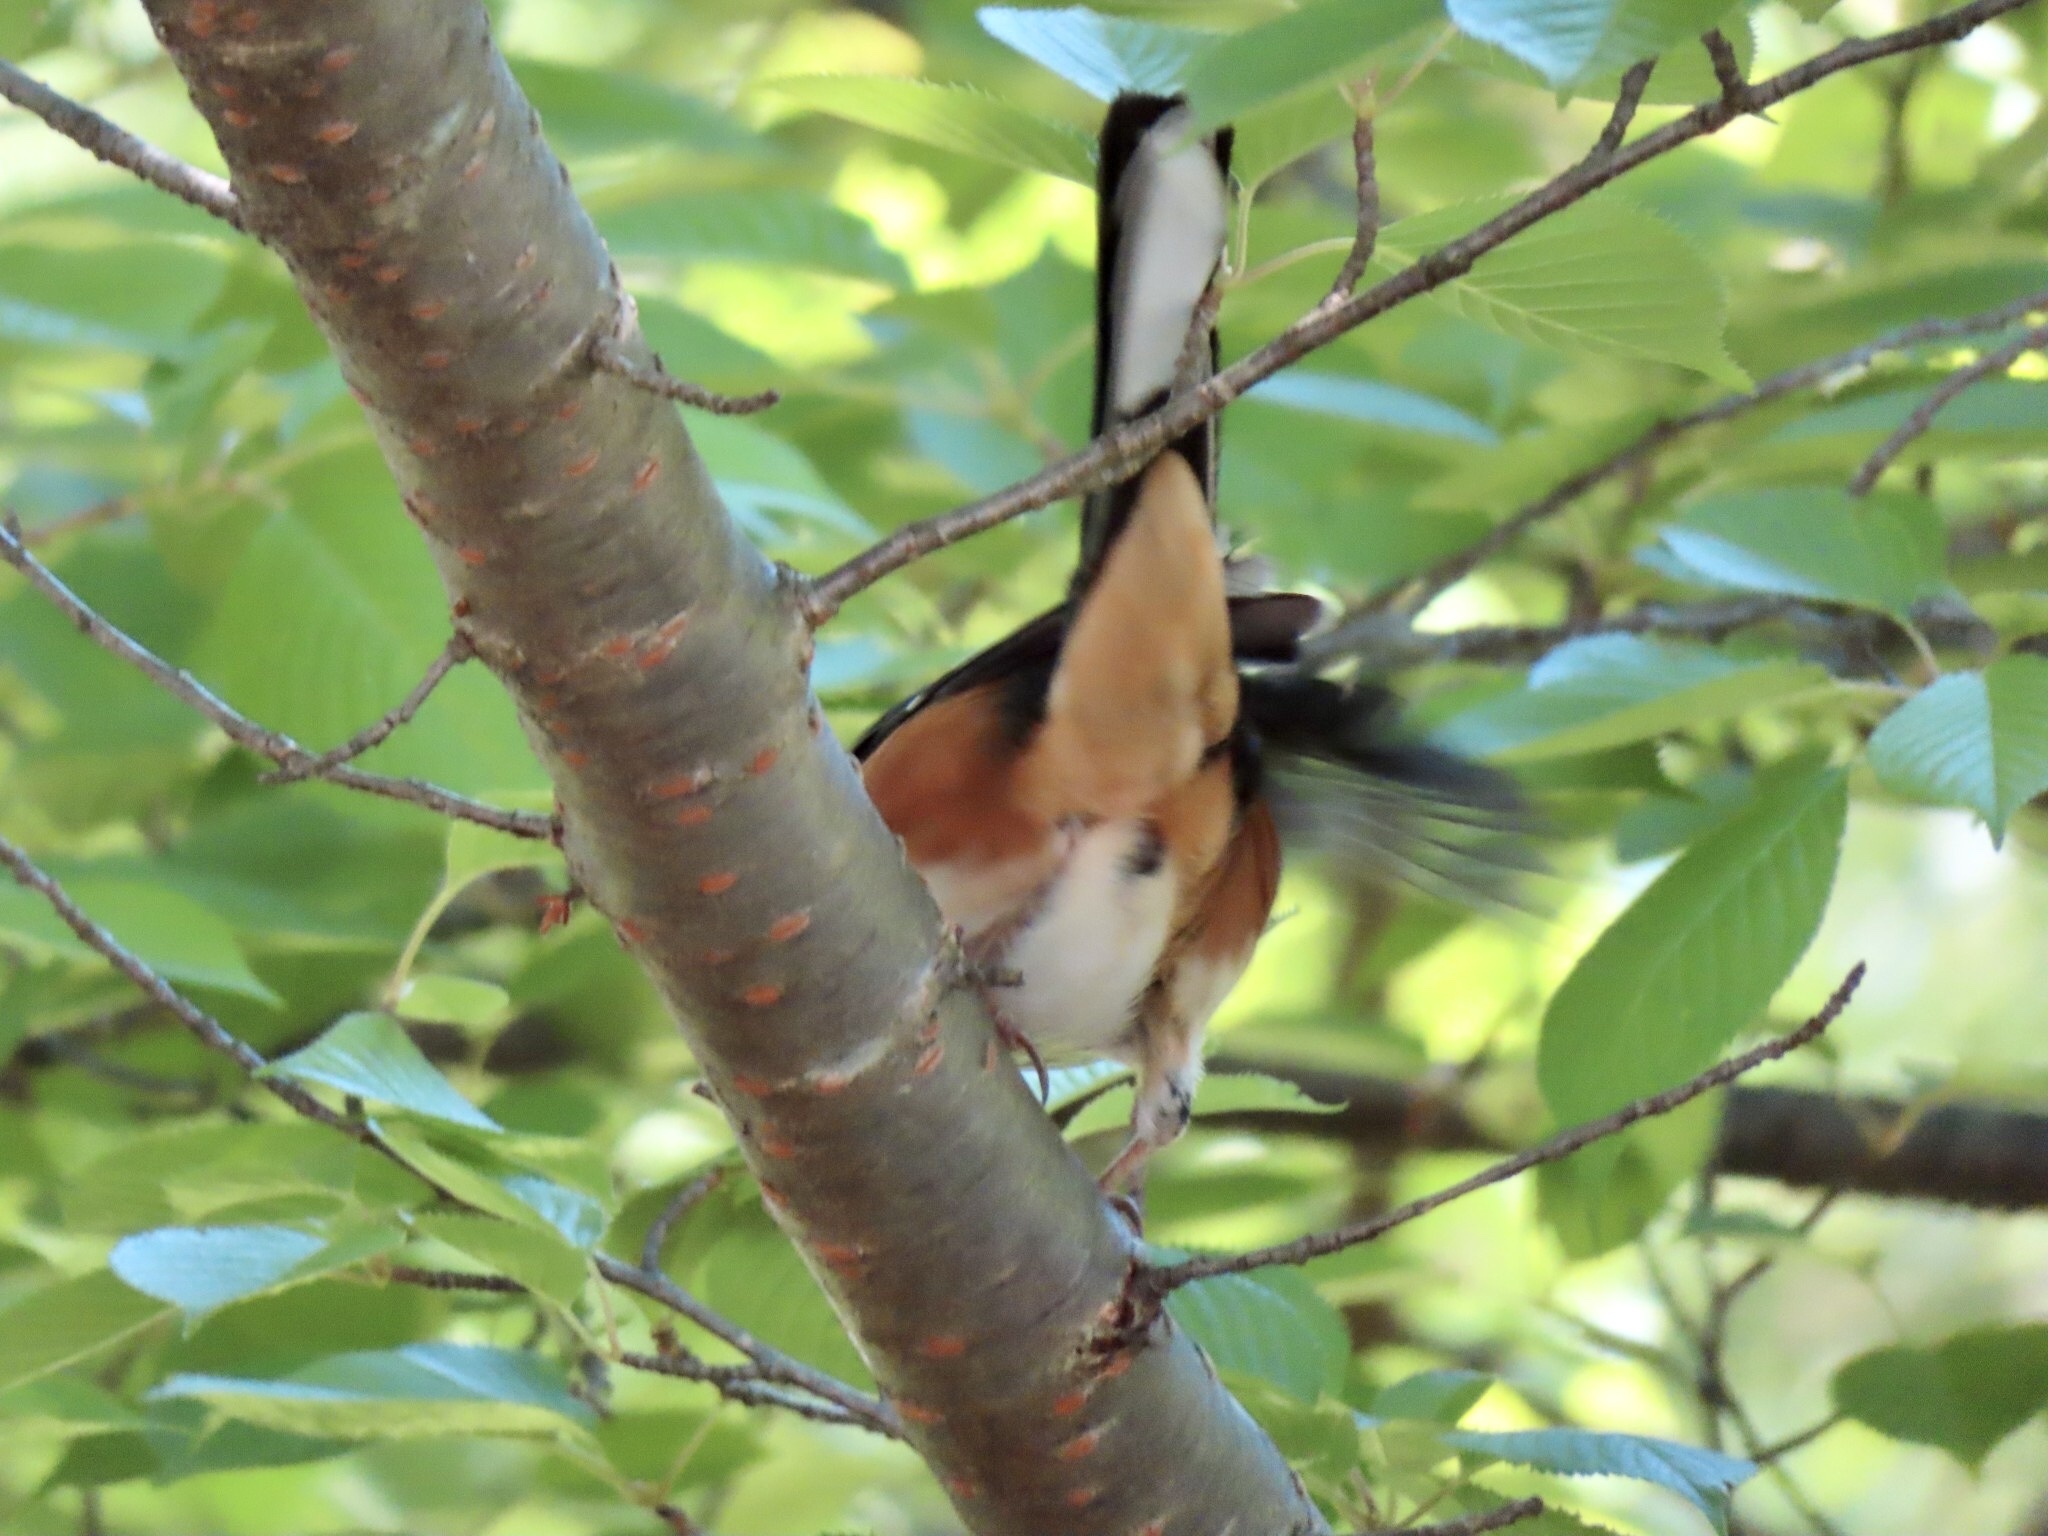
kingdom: Animalia
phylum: Chordata
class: Aves
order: Passeriformes
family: Passerellidae
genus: Pipilo
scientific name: Pipilo erythrophthalmus
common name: Eastern towhee
